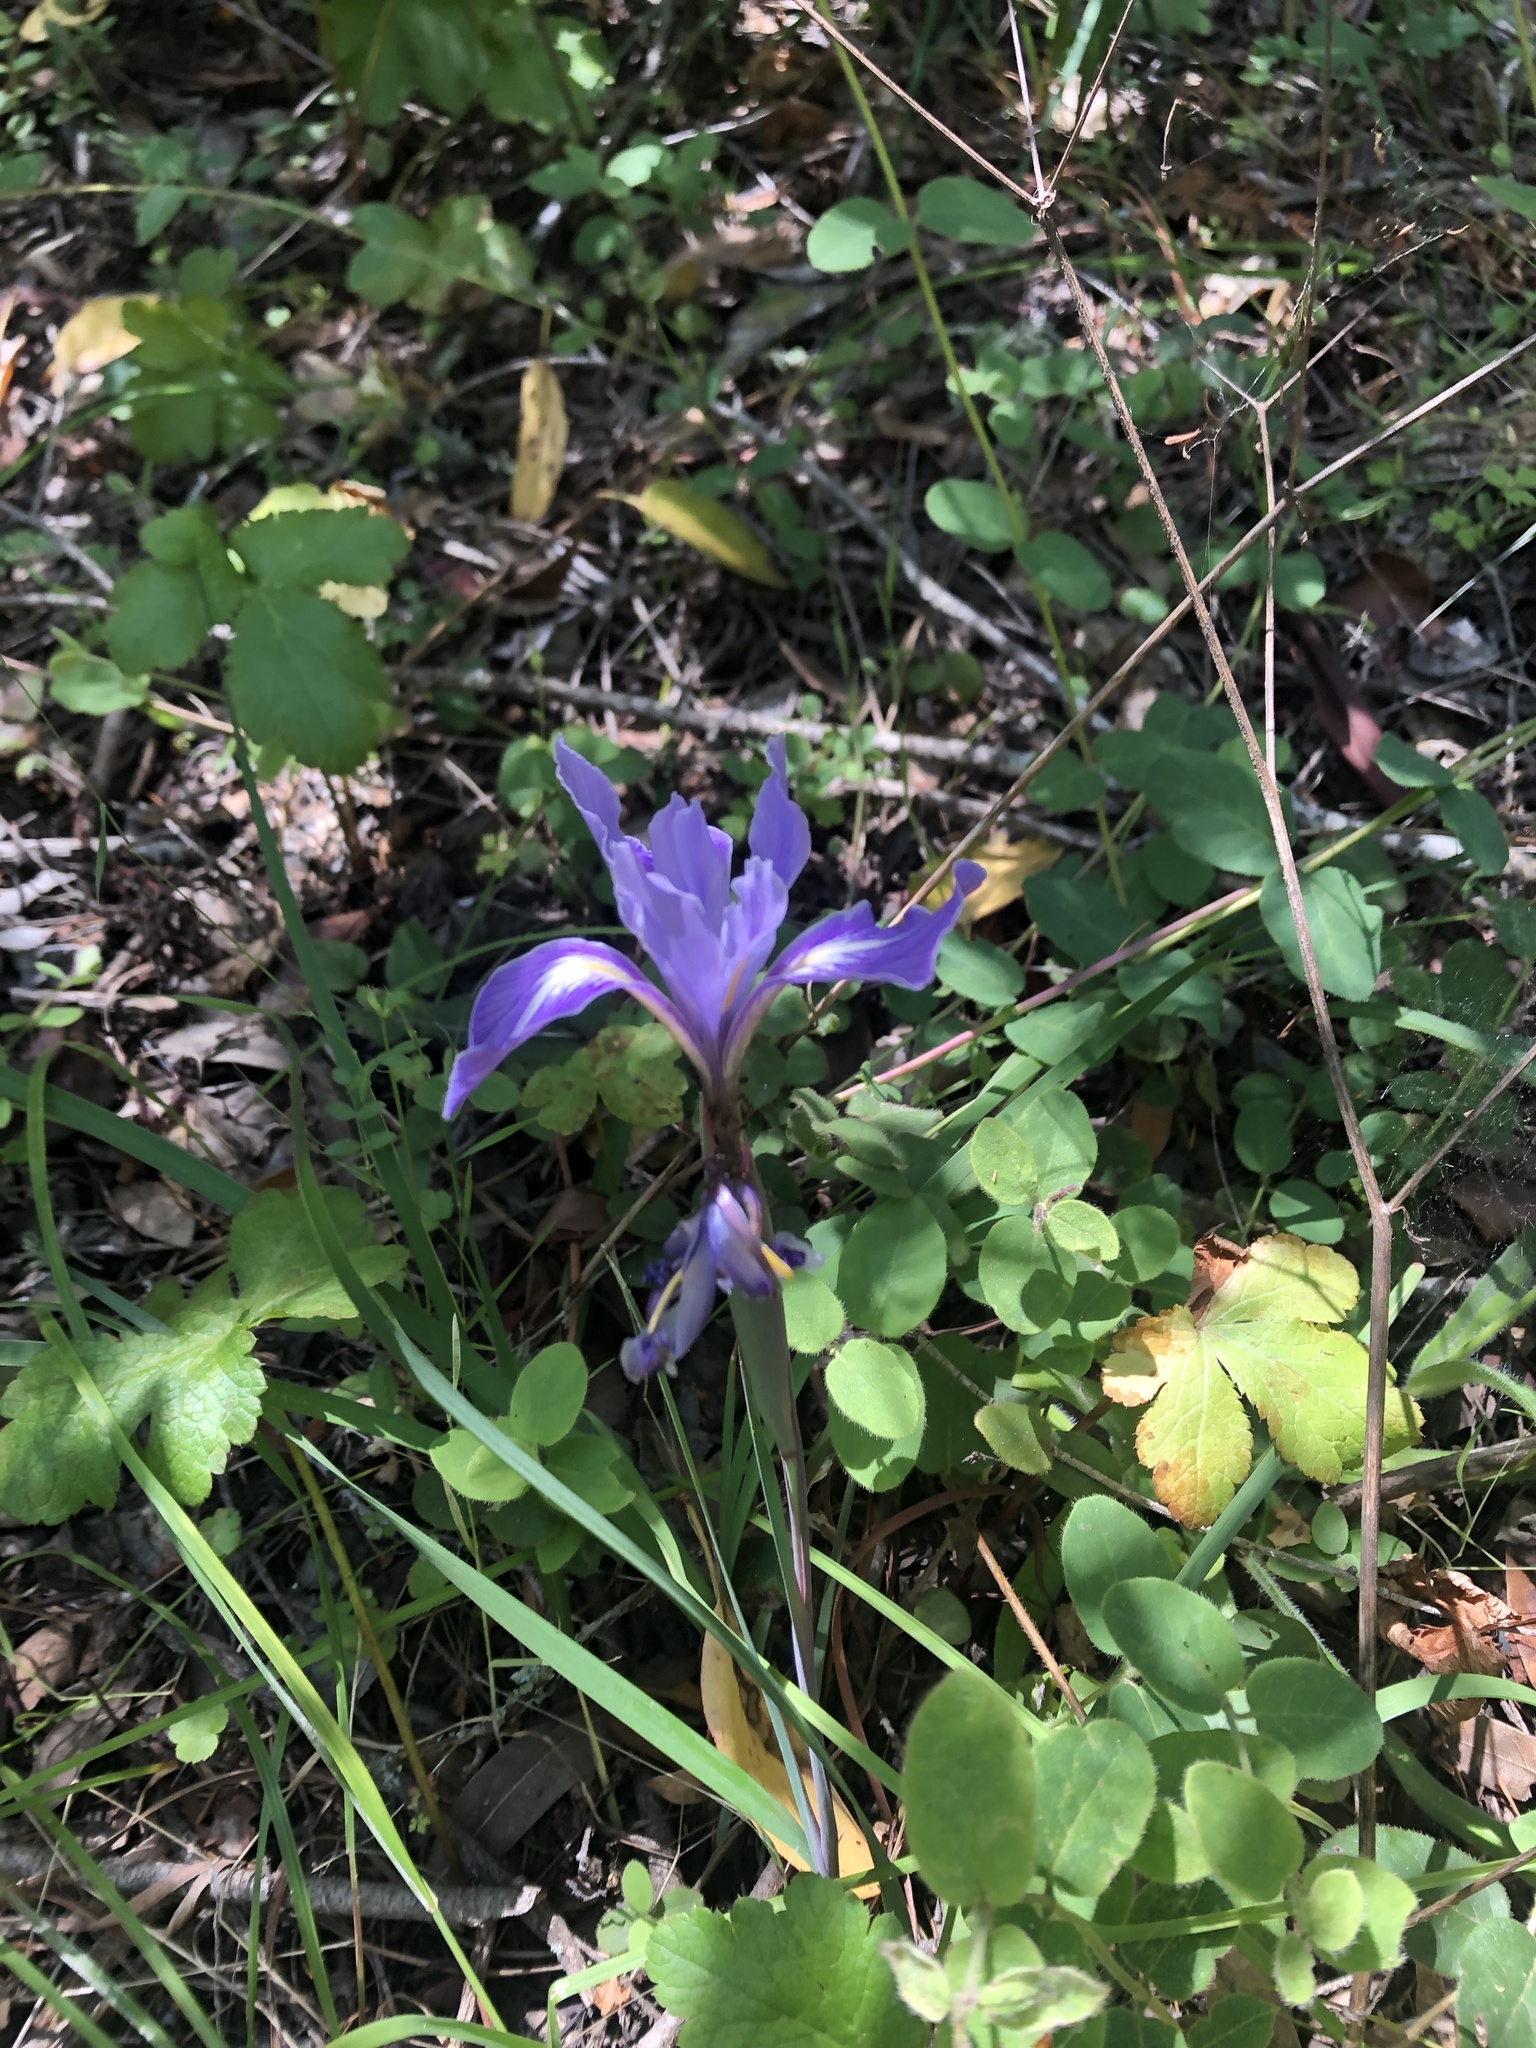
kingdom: Plantae
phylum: Tracheophyta
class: Liliopsida
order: Asparagales
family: Iridaceae
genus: Iris
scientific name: Iris macrosiphon
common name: Ground iris
